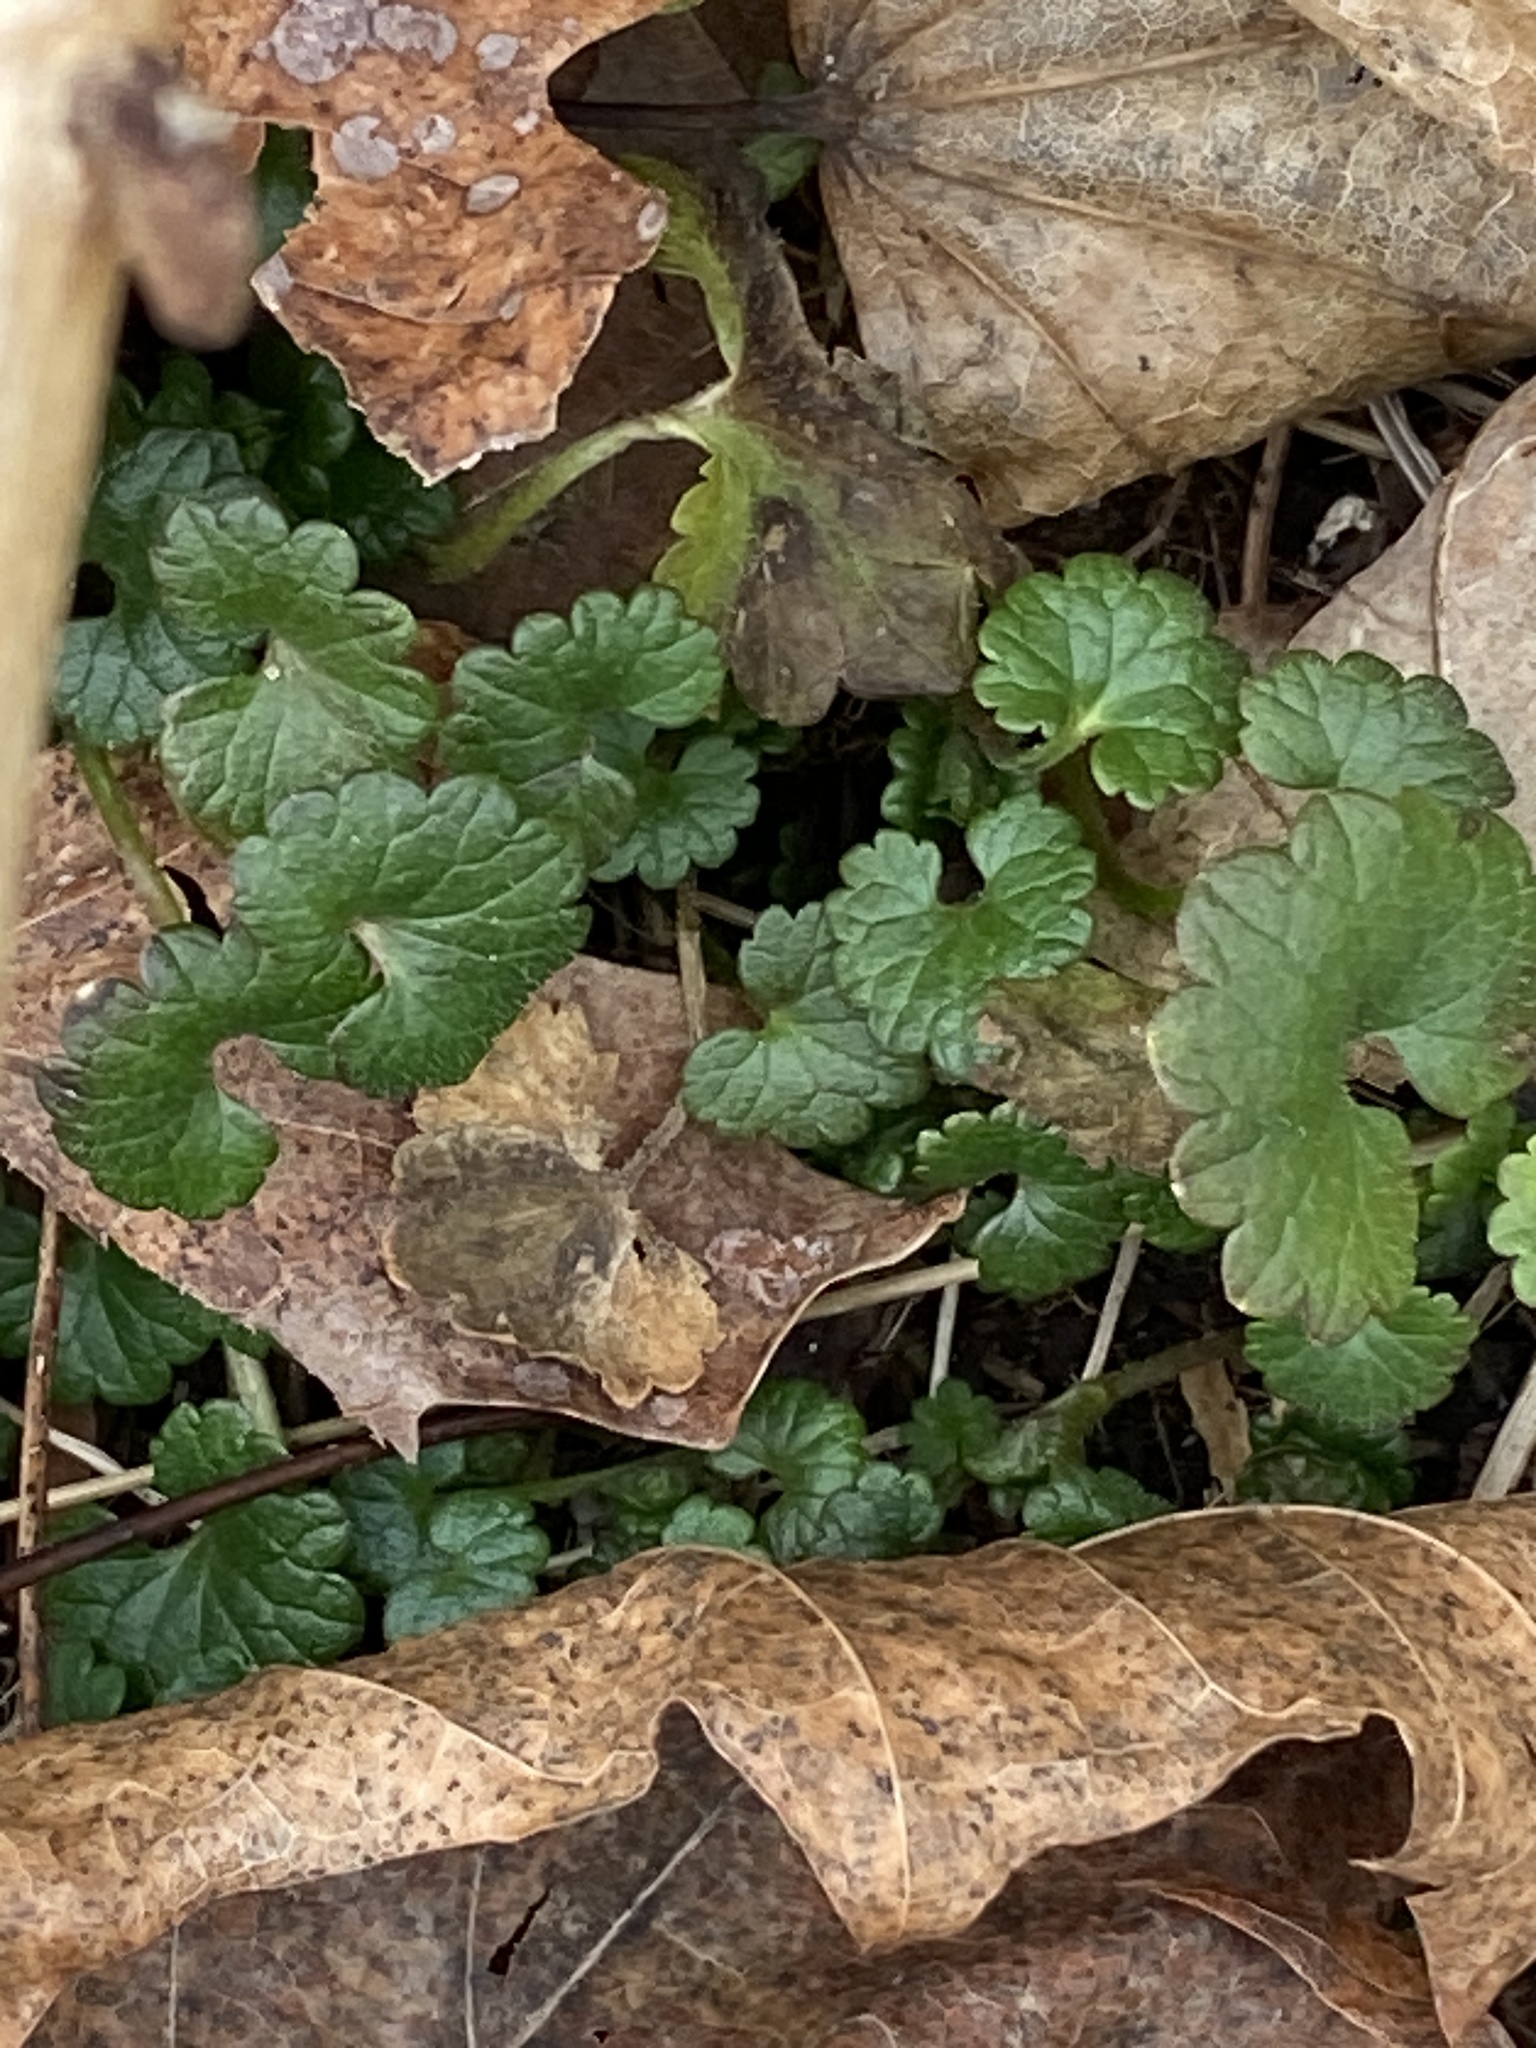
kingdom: Plantae
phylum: Tracheophyta
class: Magnoliopsida
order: Lamiales
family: Lamiaceae
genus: Glechoma
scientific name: Glechoma hederacea
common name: Ground ivy
